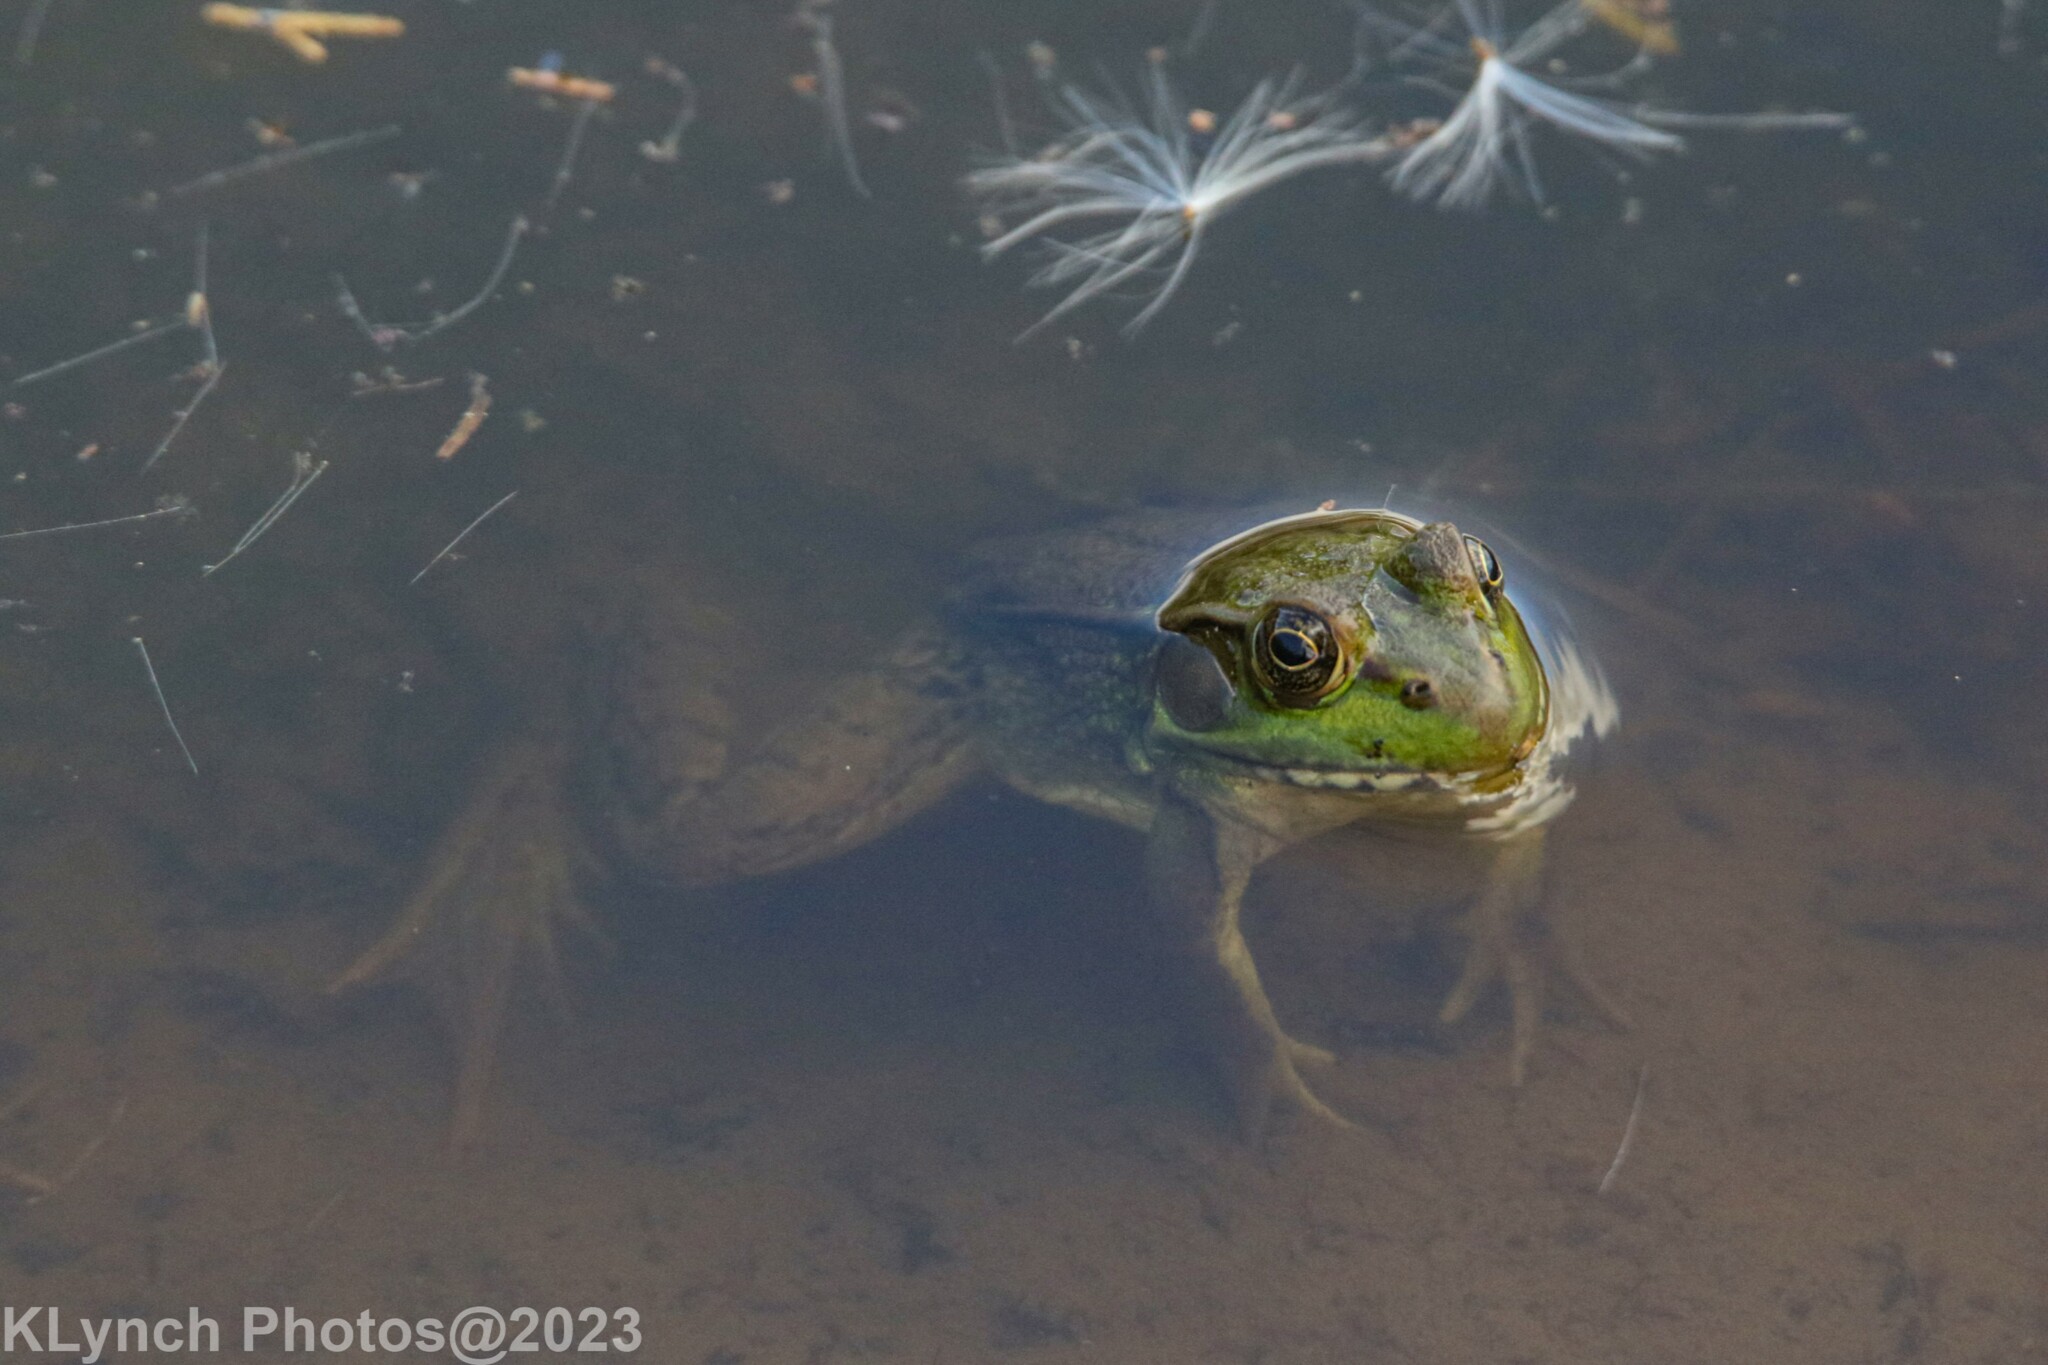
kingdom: Animalia
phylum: Chordata
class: Amphibia
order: Anura
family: Ranidae
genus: Lithobates
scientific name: Lithobates clamitans
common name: Green frog
